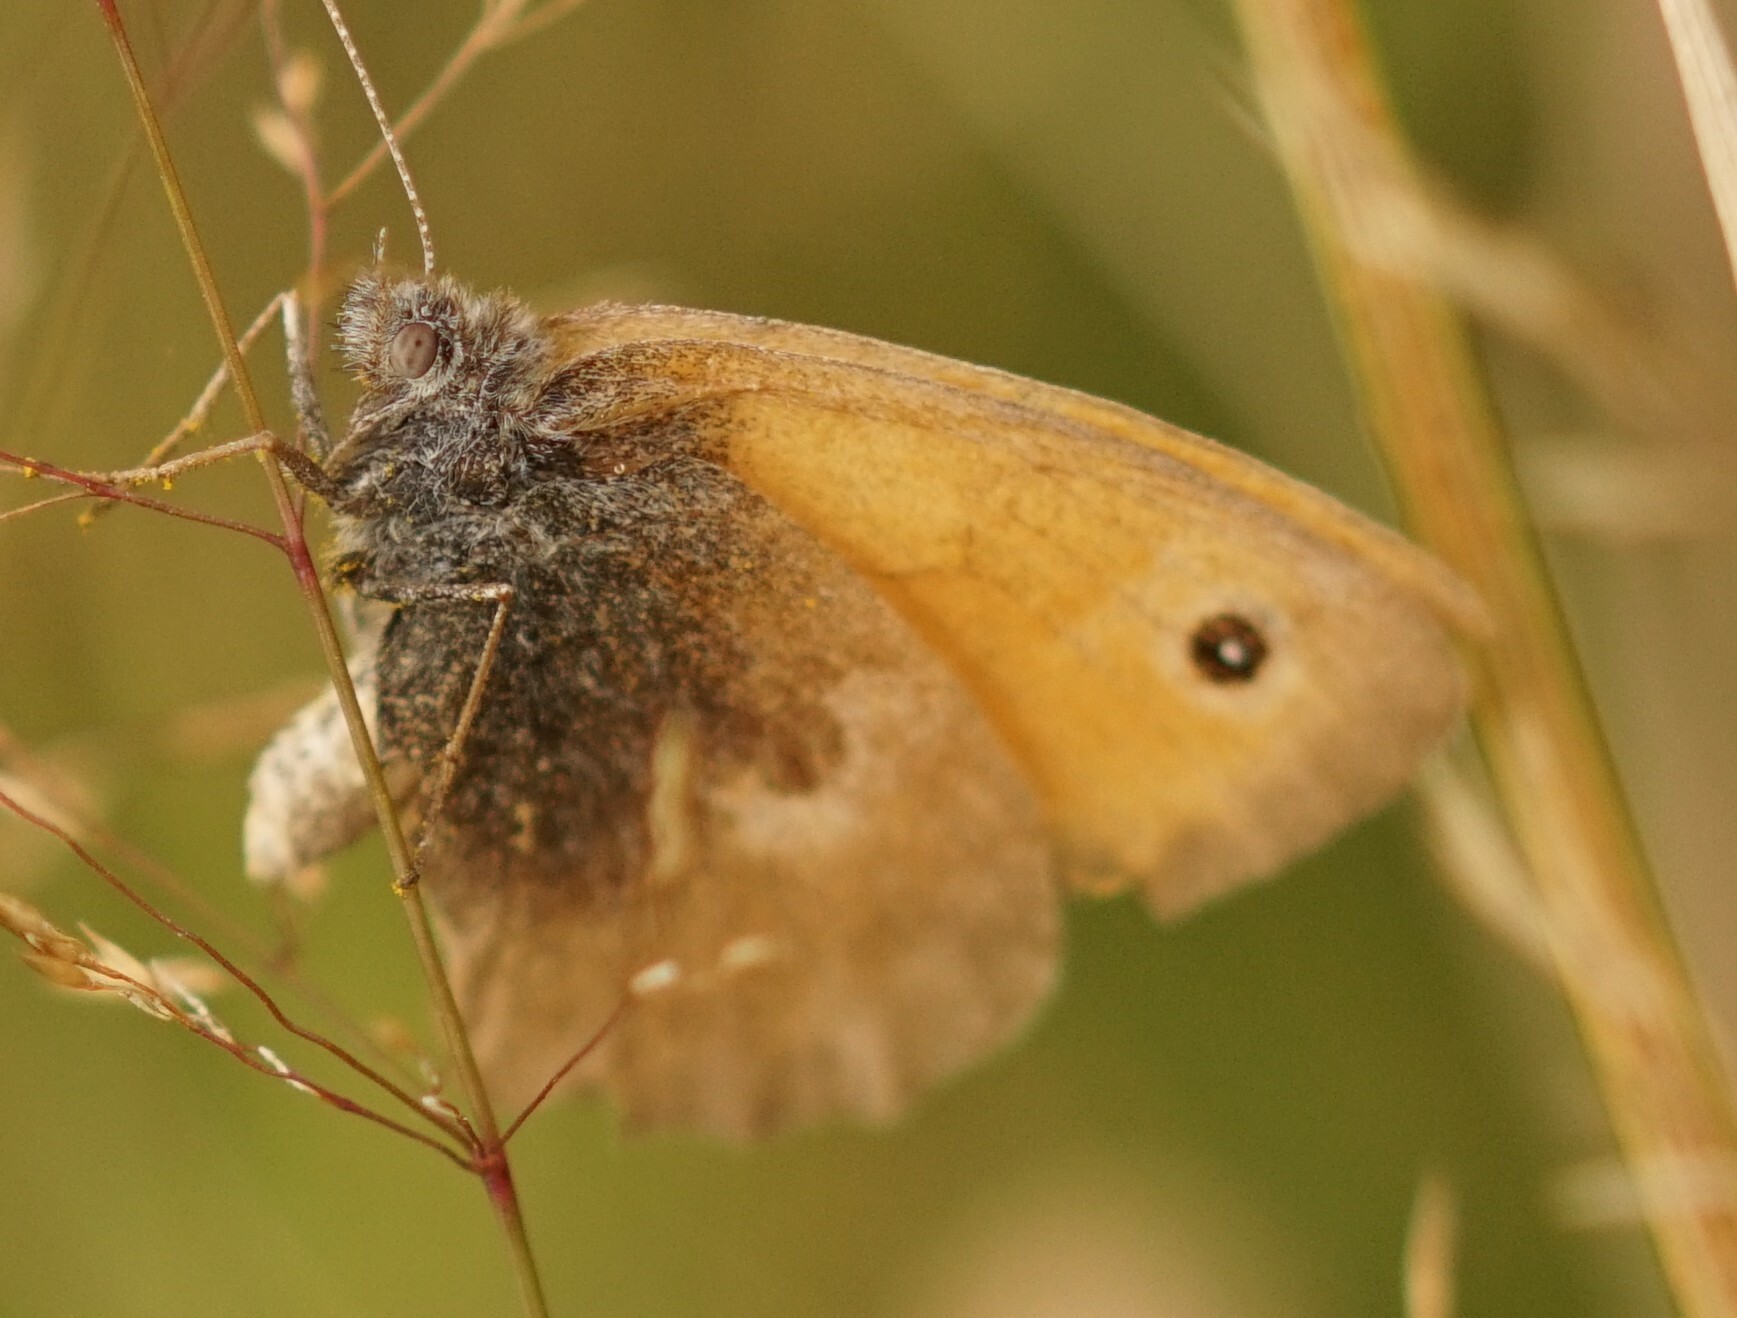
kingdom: Animalia
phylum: Arthropoda
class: Insecta
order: Lepidoptera
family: Nymphalidae
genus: Coenonympha
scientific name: Coenonympha pamphilus
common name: Small heath
